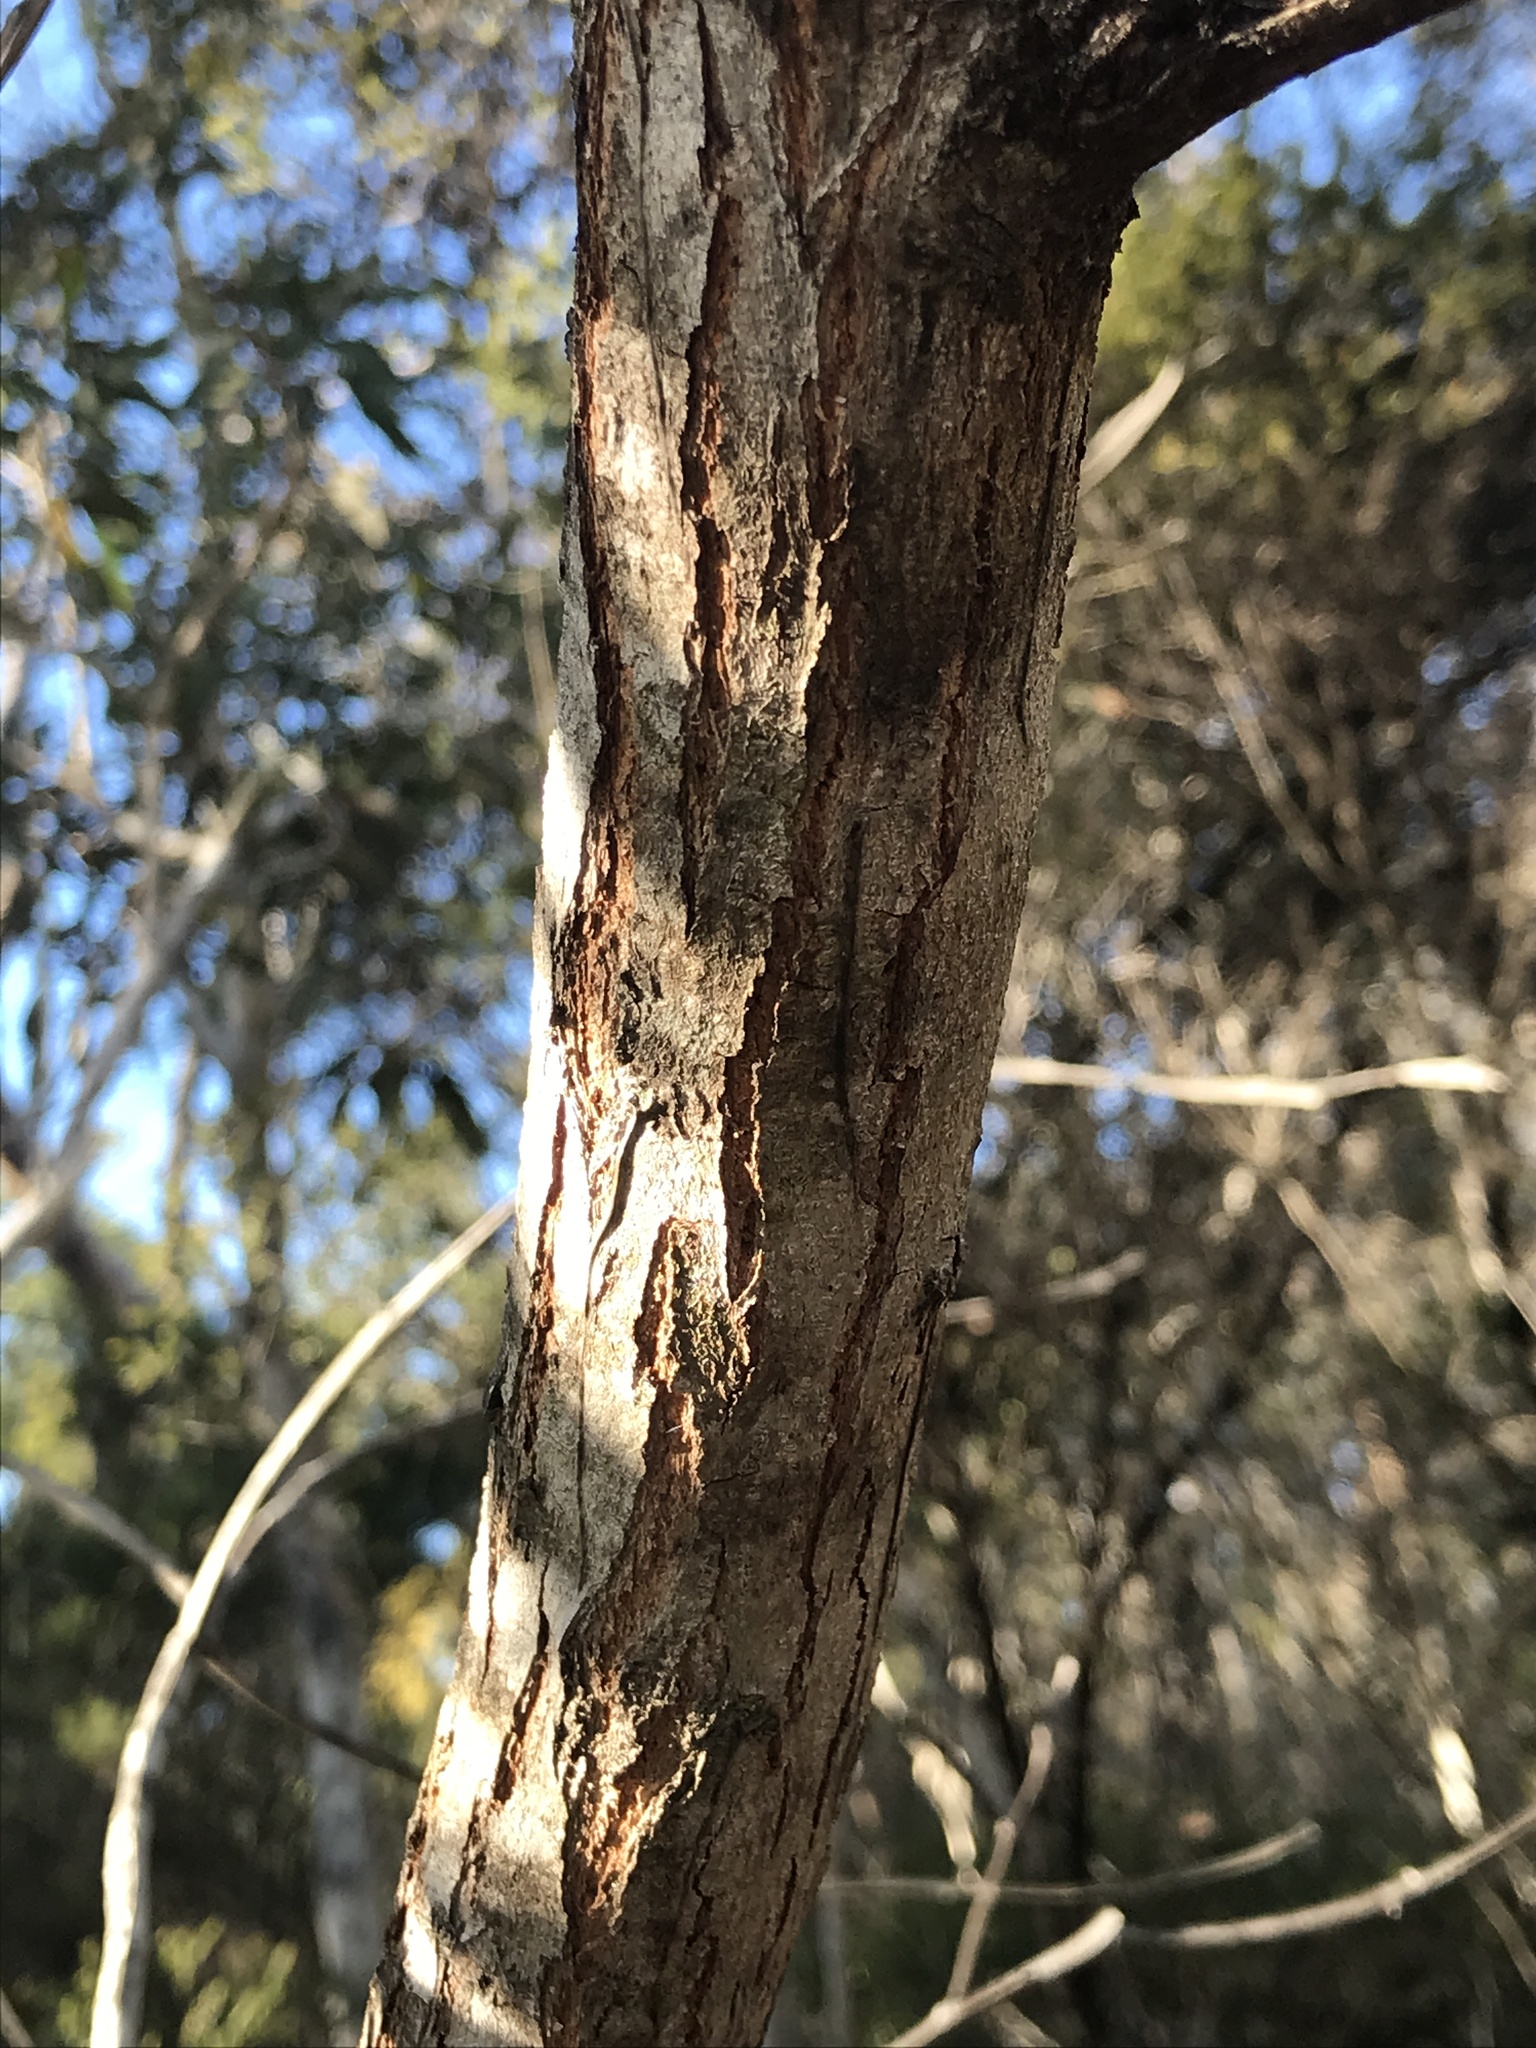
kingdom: Plantae
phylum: Tracheophyta
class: Magnoliopsida
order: Fabales
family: Fabaceae
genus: Acacia
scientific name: Acacia leiocalyx
